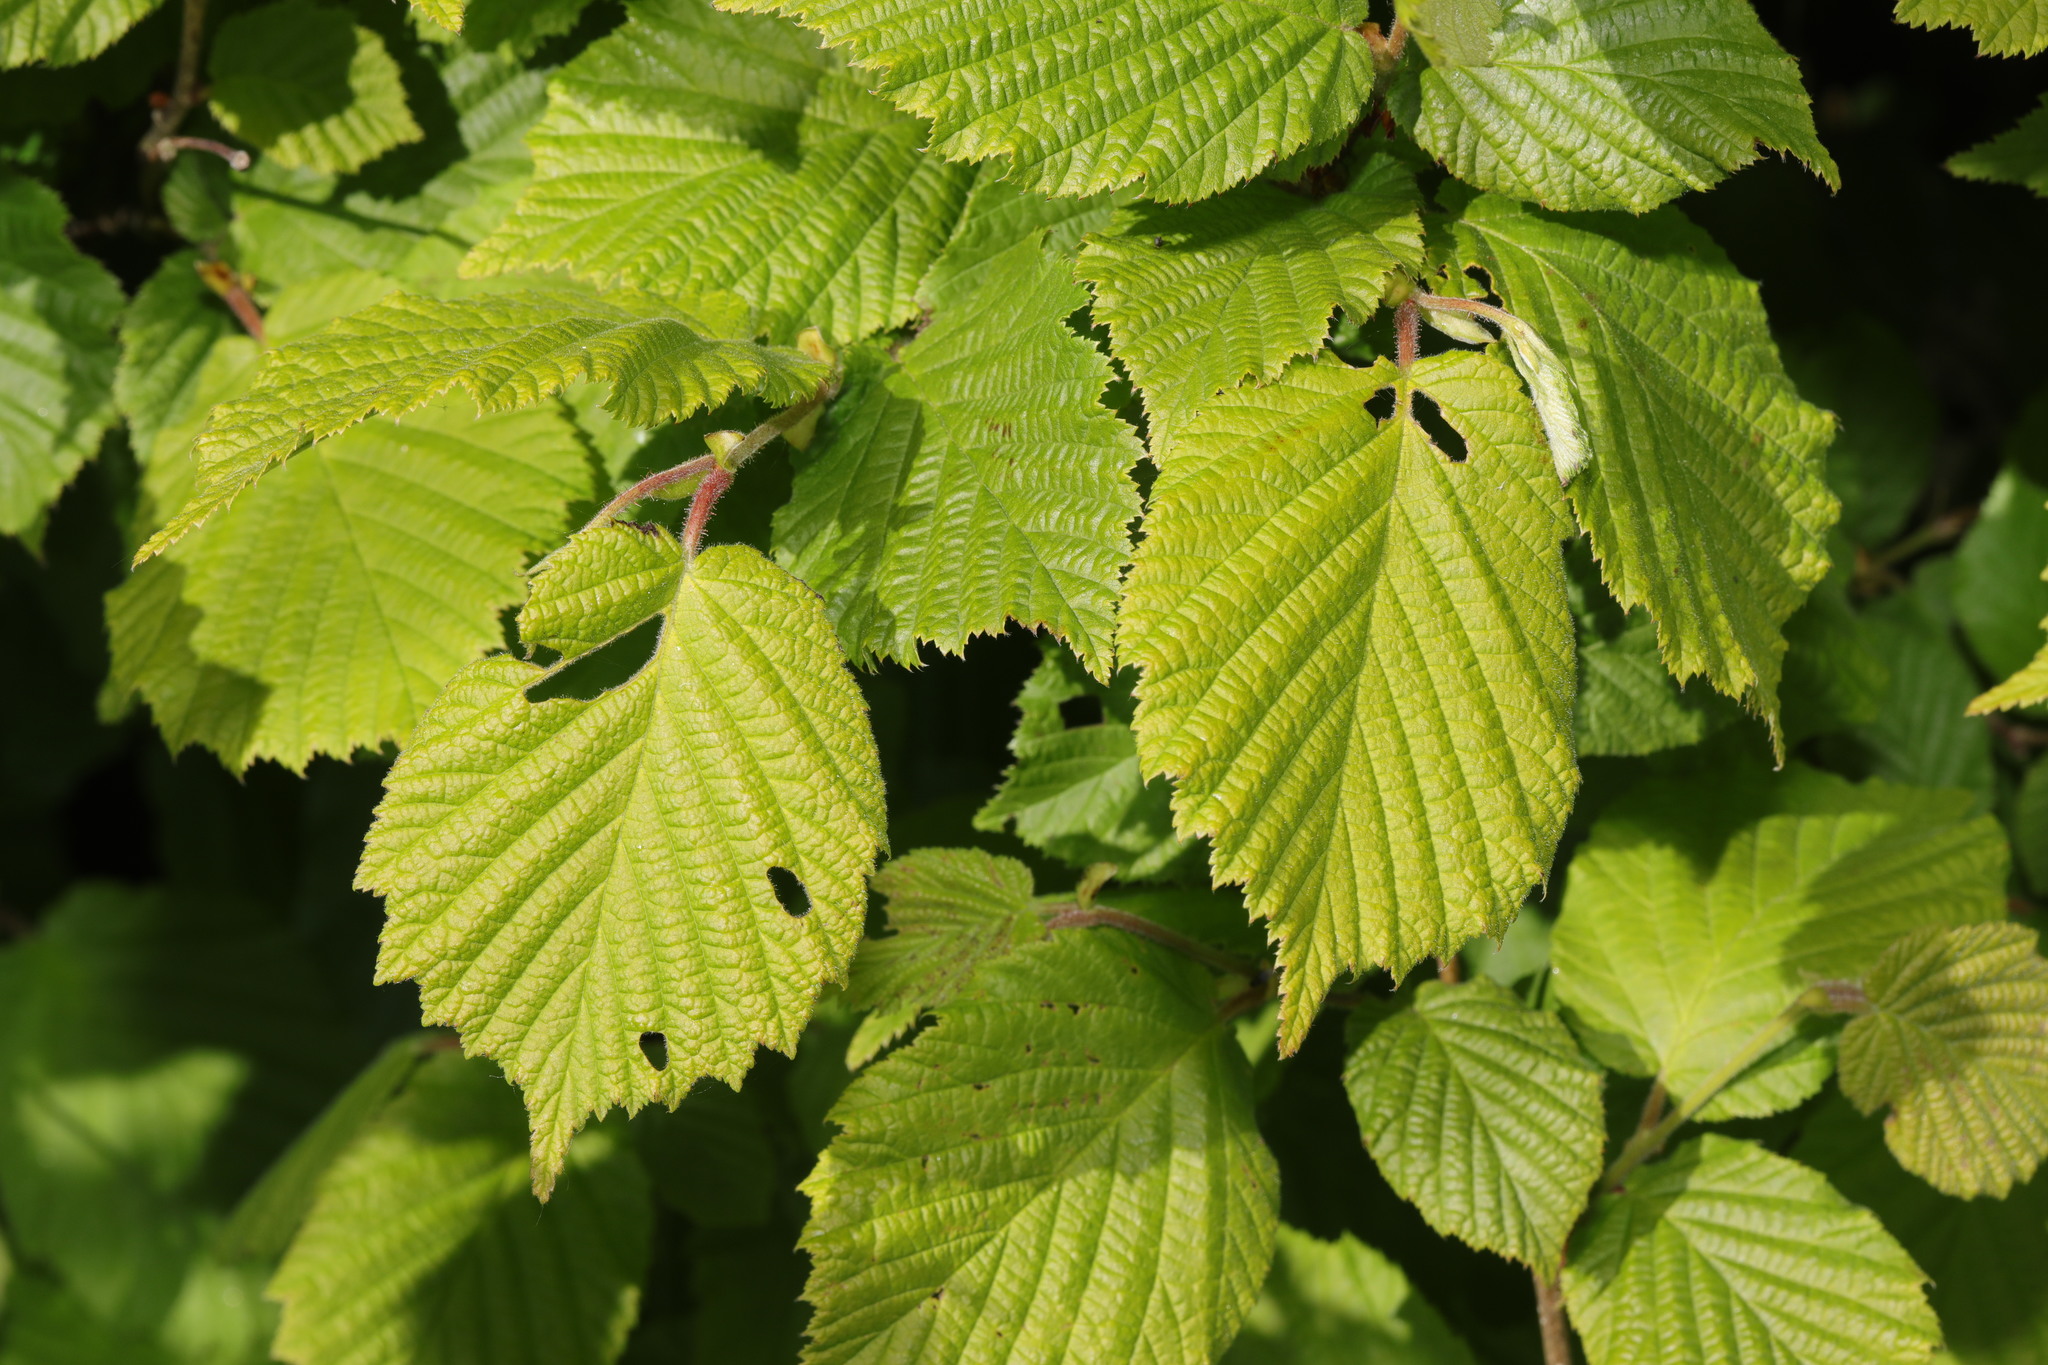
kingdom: Plantae
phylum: Tracheophyta
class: Magnoliopsida
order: Fagales
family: Betulaceae
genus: Corylus
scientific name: Corylus avellana
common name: European hazel
